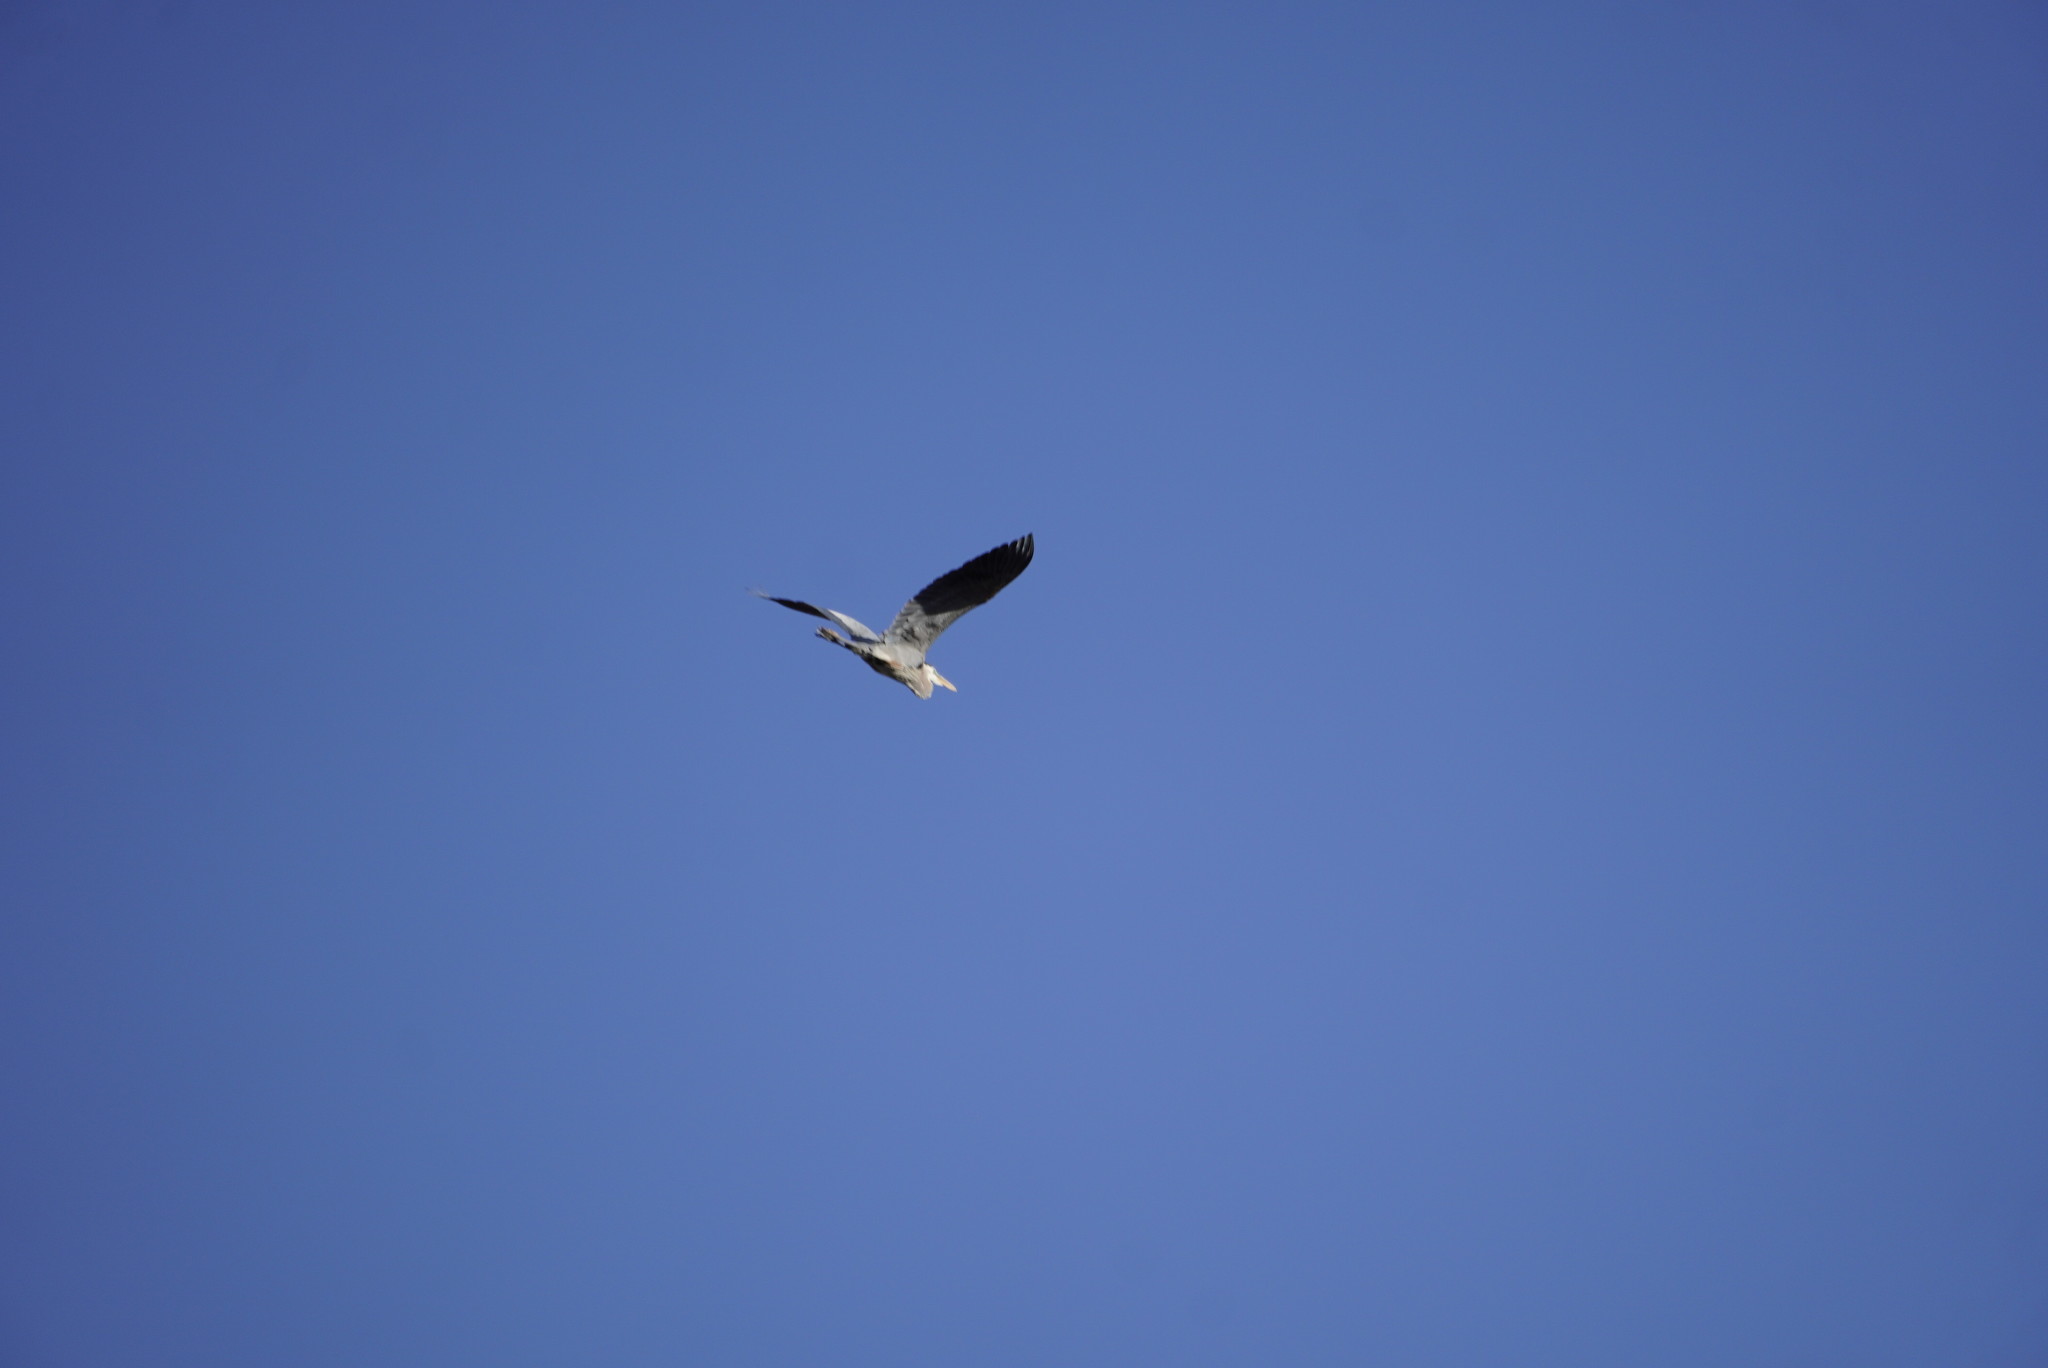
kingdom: Animalia
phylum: Chordata
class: Aves
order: Pelecaniformes
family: Ardeidae
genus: Ardea
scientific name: Ardea herodias
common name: Great blue heron
